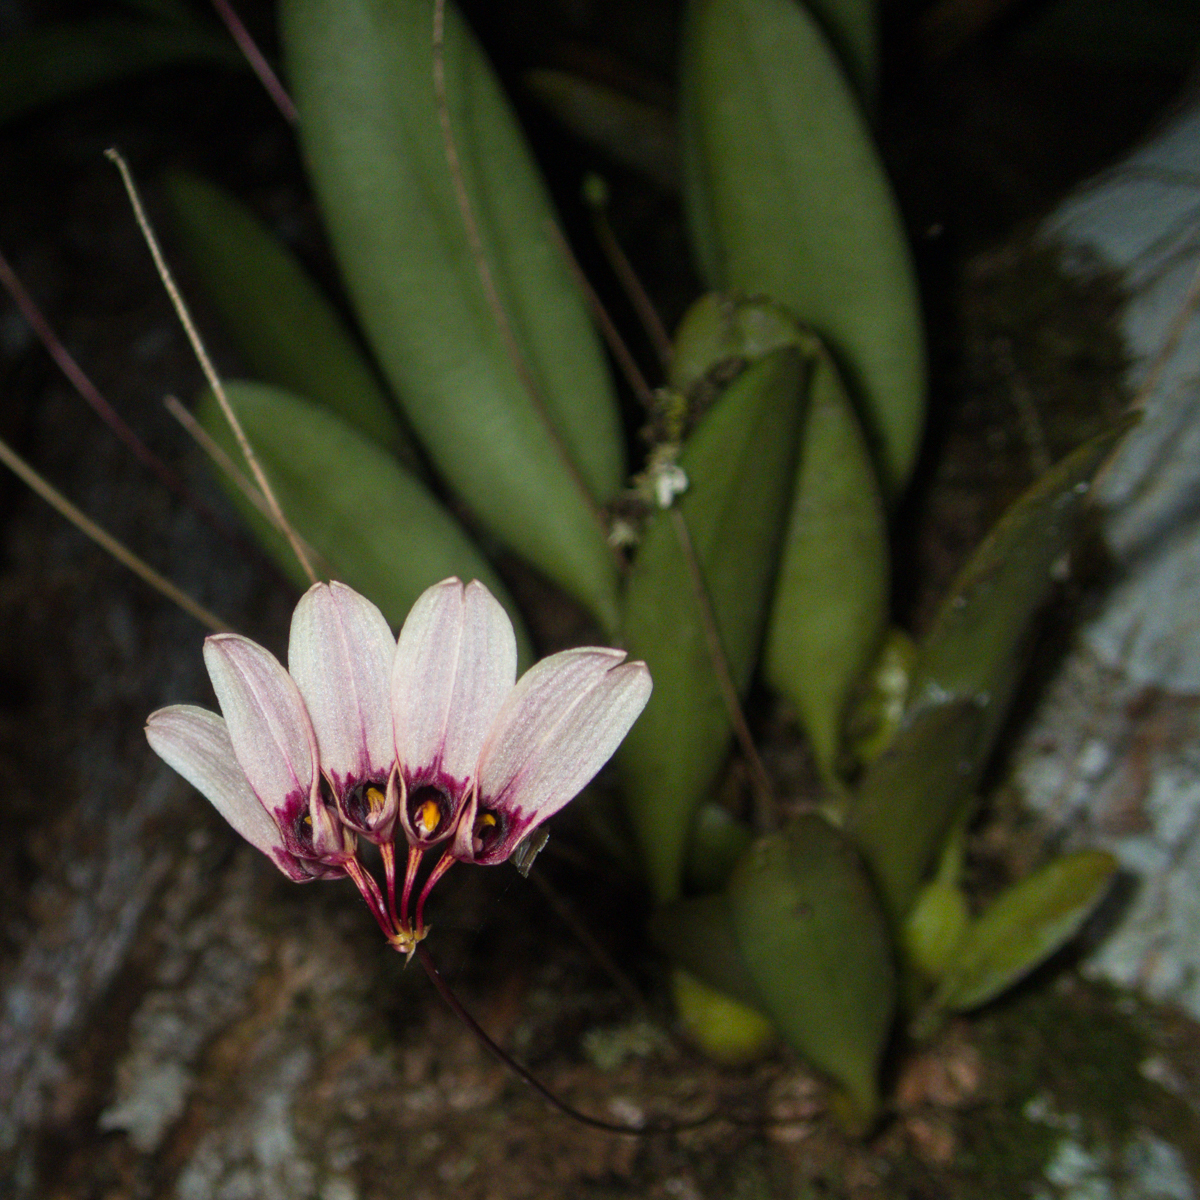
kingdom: Plantae
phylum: Tracheophyta
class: Liliopsida
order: Asparagales
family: Orchidaceae
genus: Bulbophyllum
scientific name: Bulbophyllum lepidum
